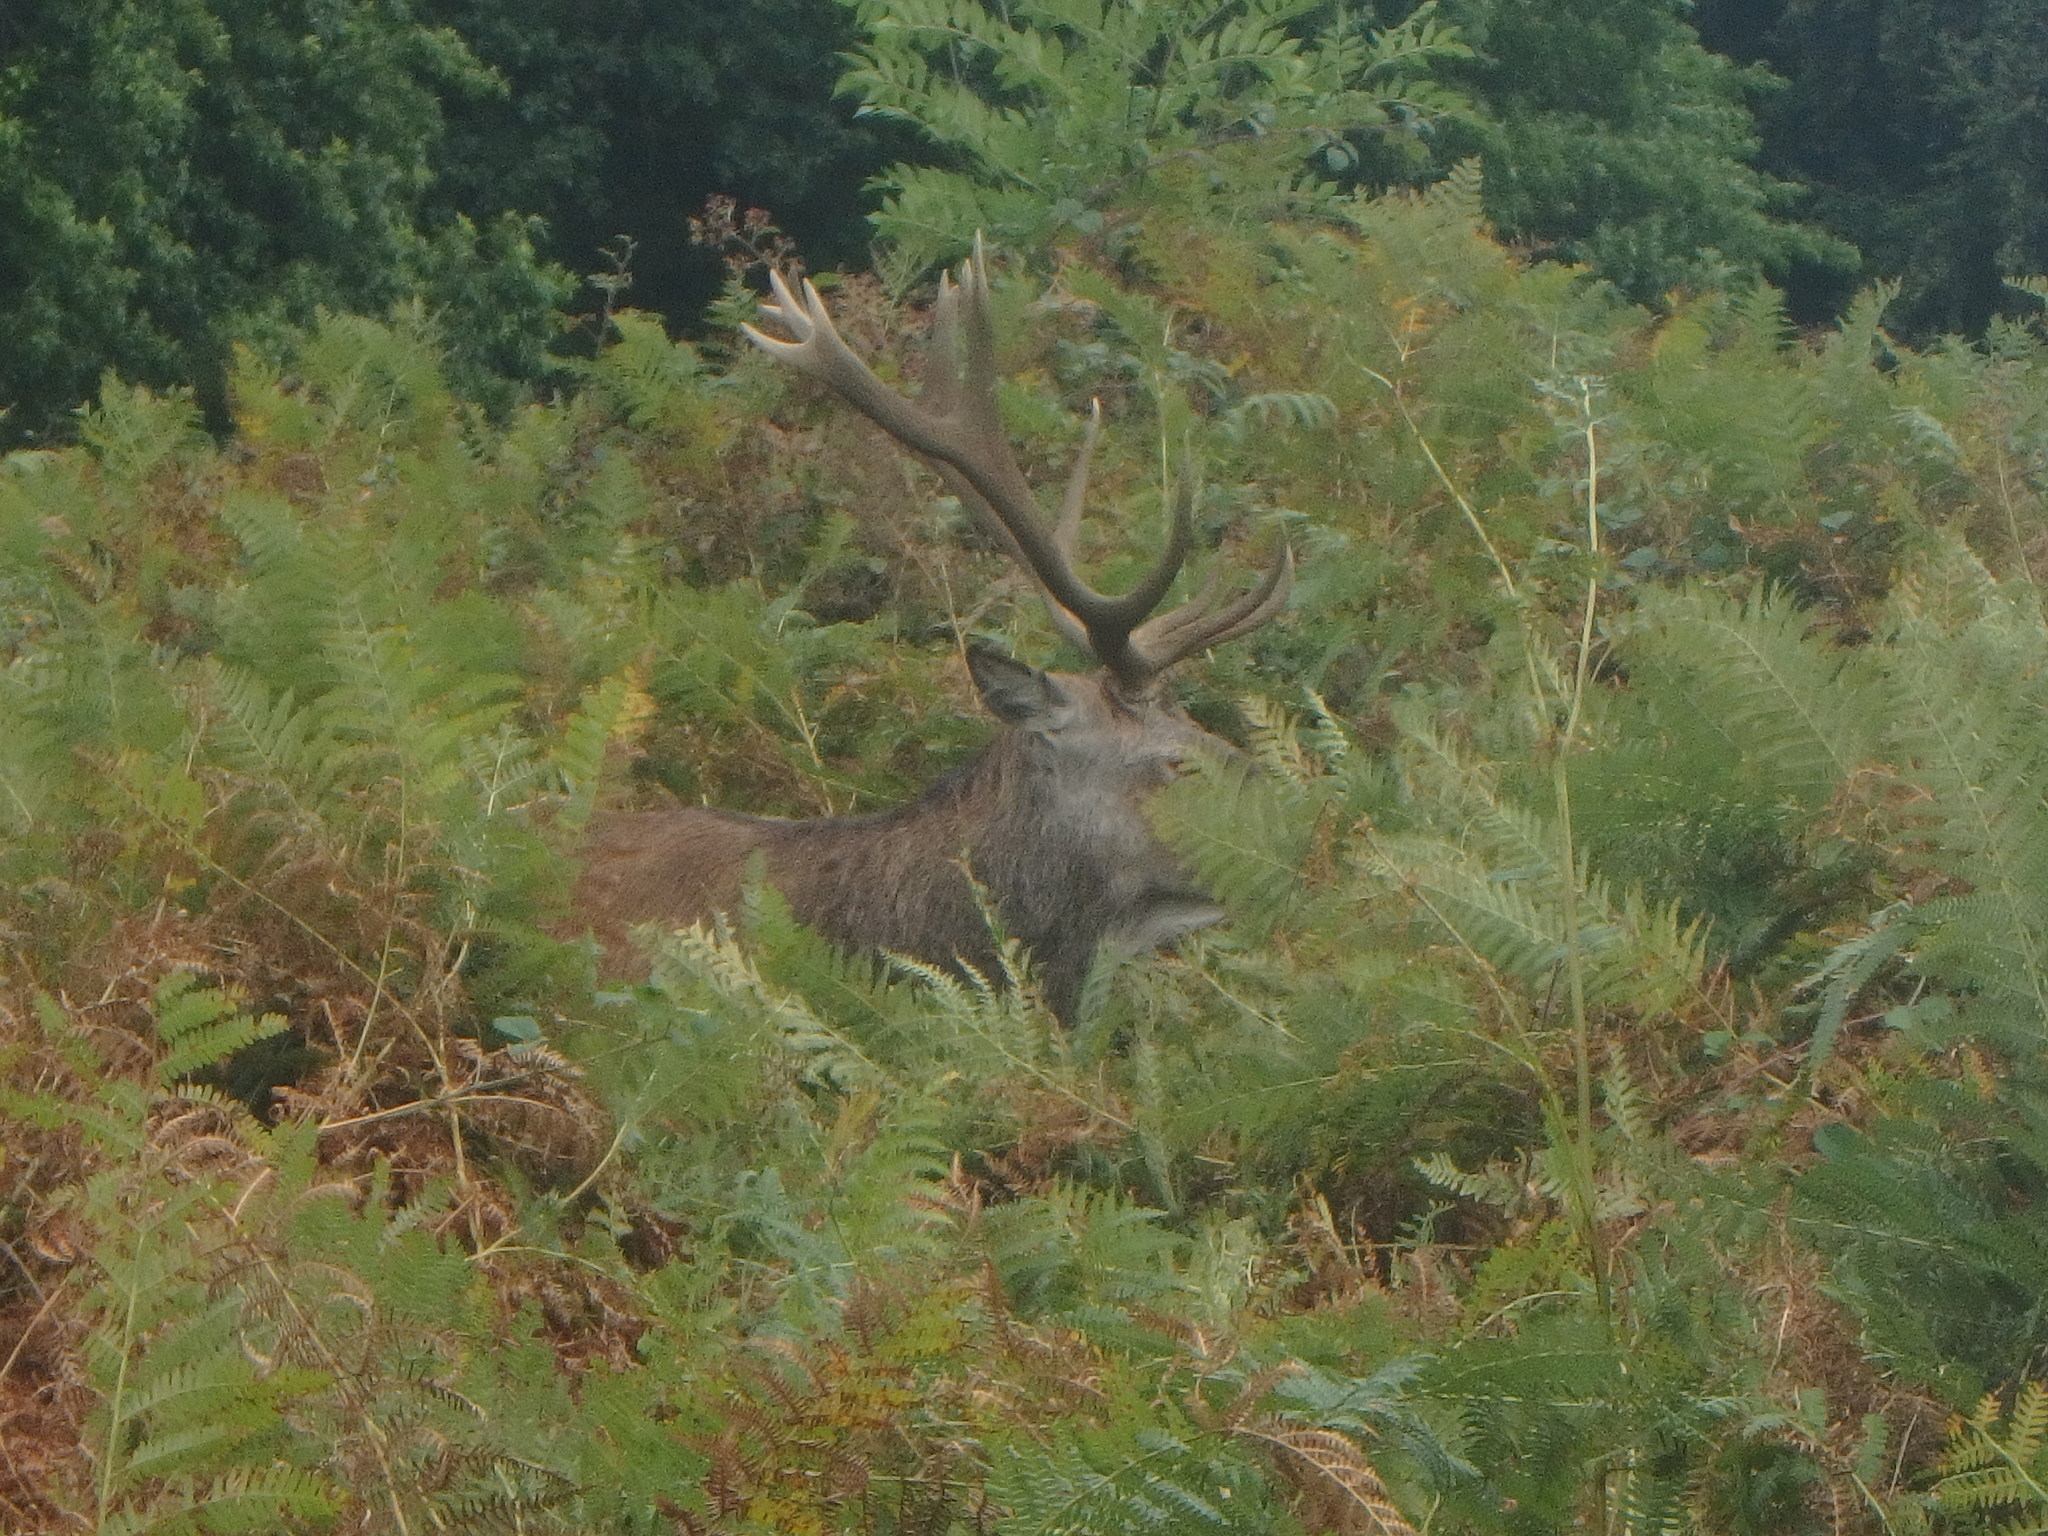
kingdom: Animalia
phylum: Chordata
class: Mammalia
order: Artiodactyla
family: Cervidae
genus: Cervus
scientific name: Cervus elaphus
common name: Red deer
